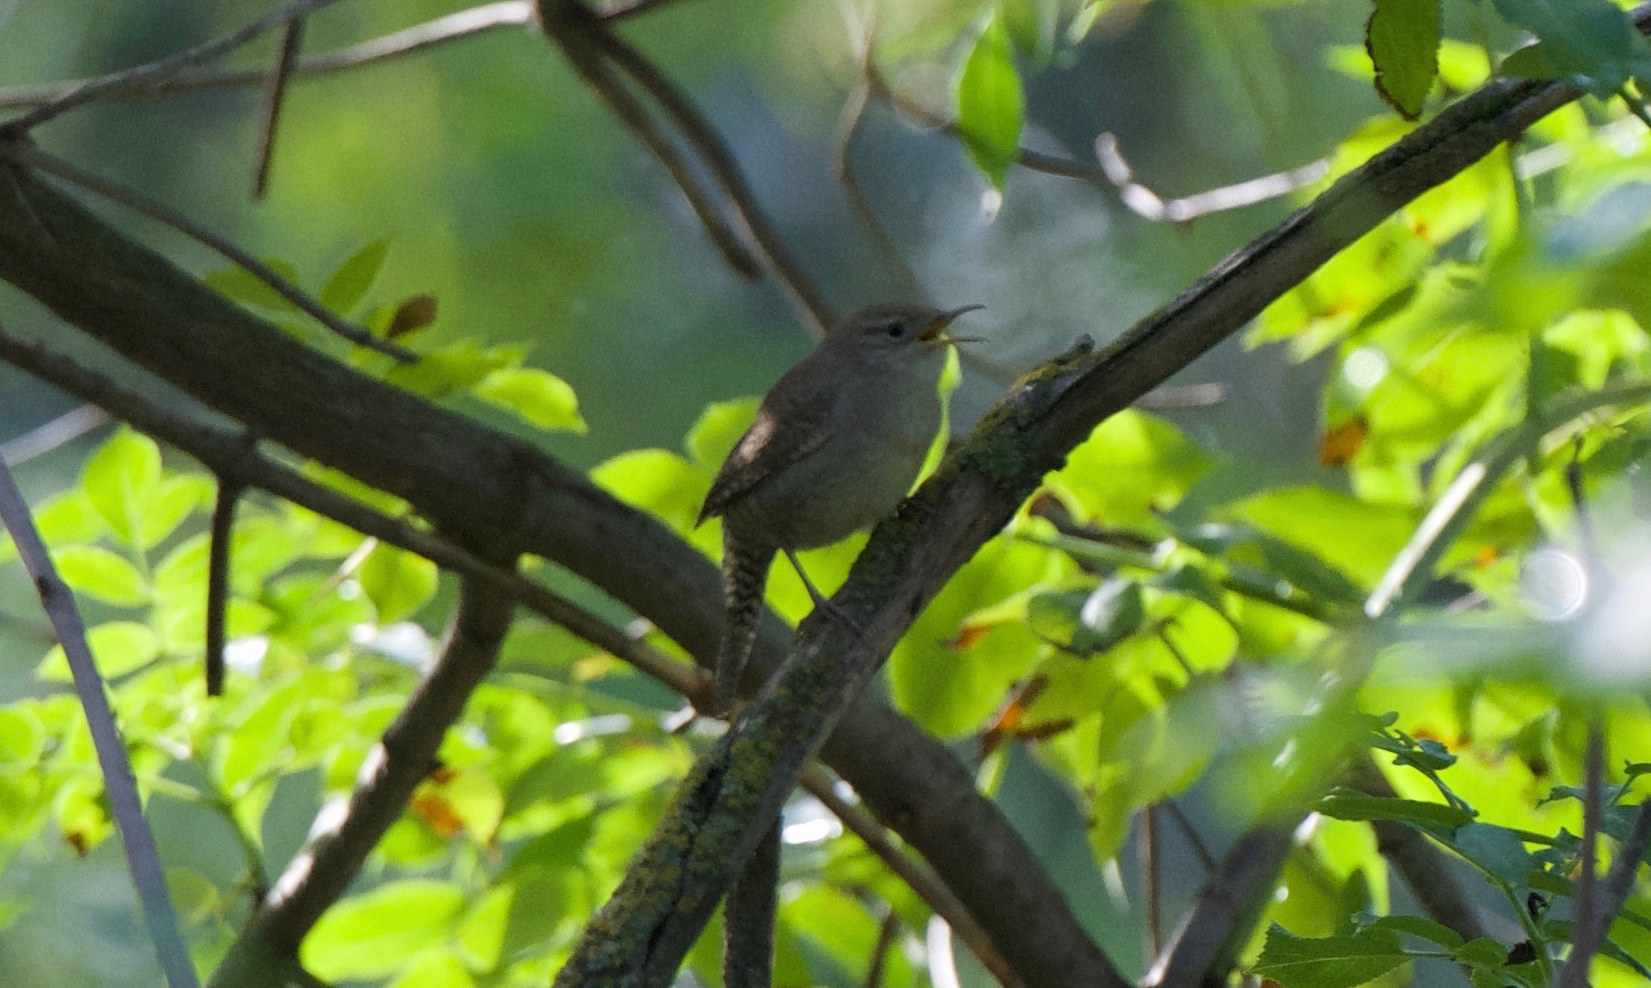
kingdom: Animalia
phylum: Chordata
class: Aves
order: Passeriformes
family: Troglodytidae
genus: Troglodytes
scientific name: Troglodytes aedon
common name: House wren
